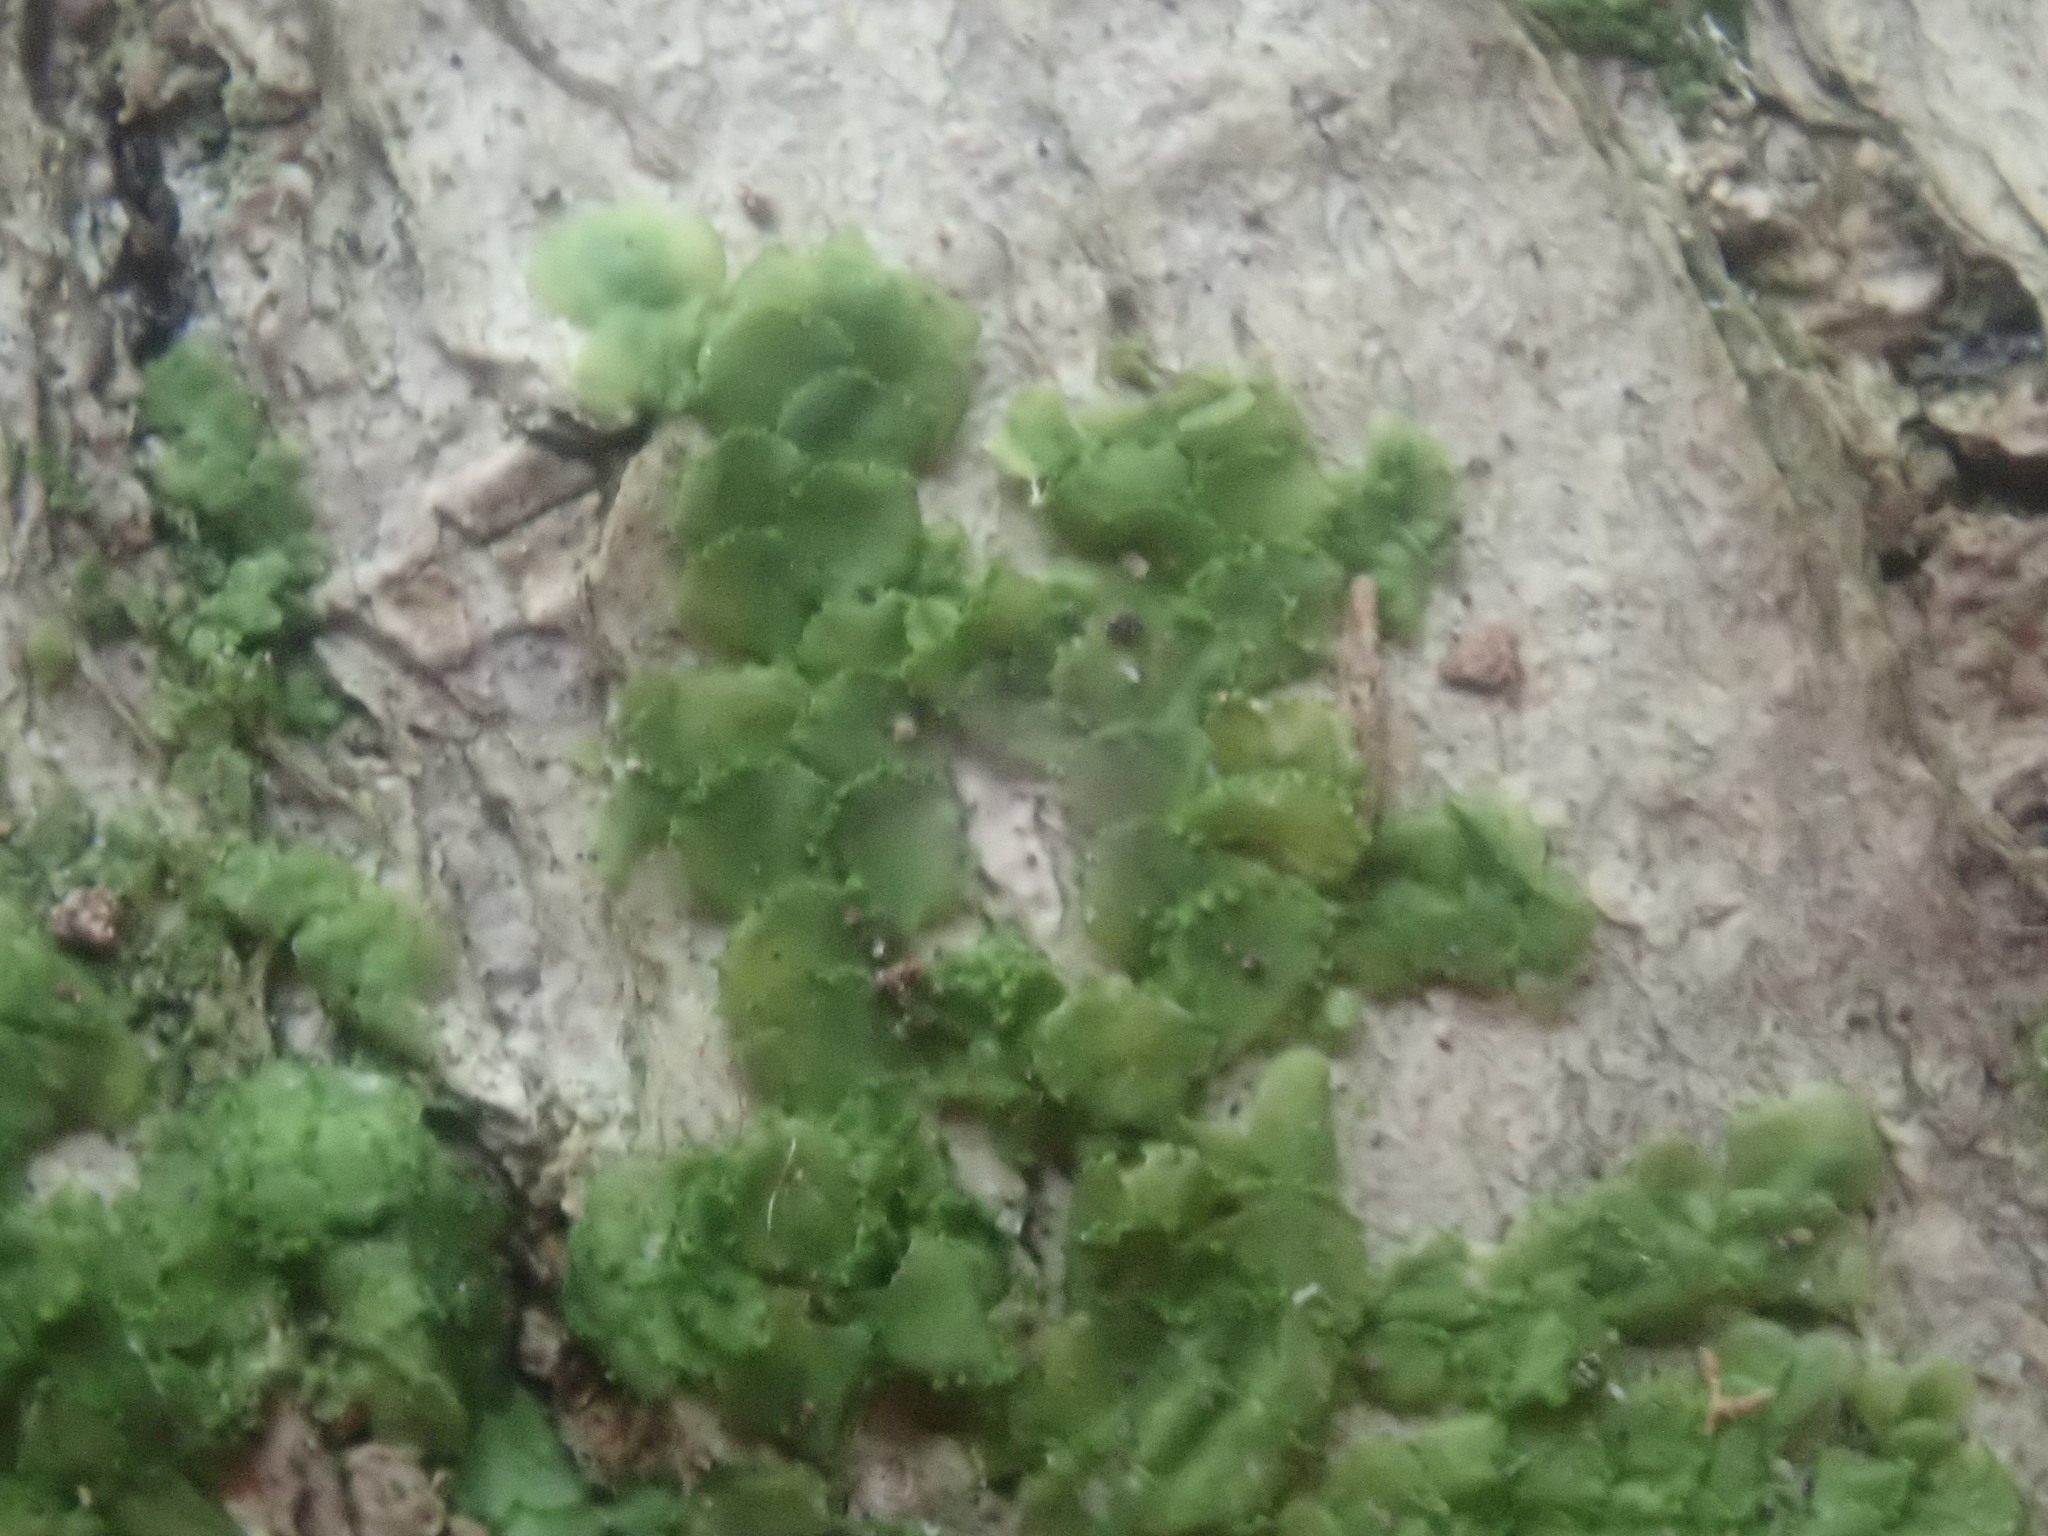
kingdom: Plantae
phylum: Marchantiophyta
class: Jungermanniopsida
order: Porellales
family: Radulaceae
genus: Radula
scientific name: Radula complanata
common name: Flat-leaved scalewort
